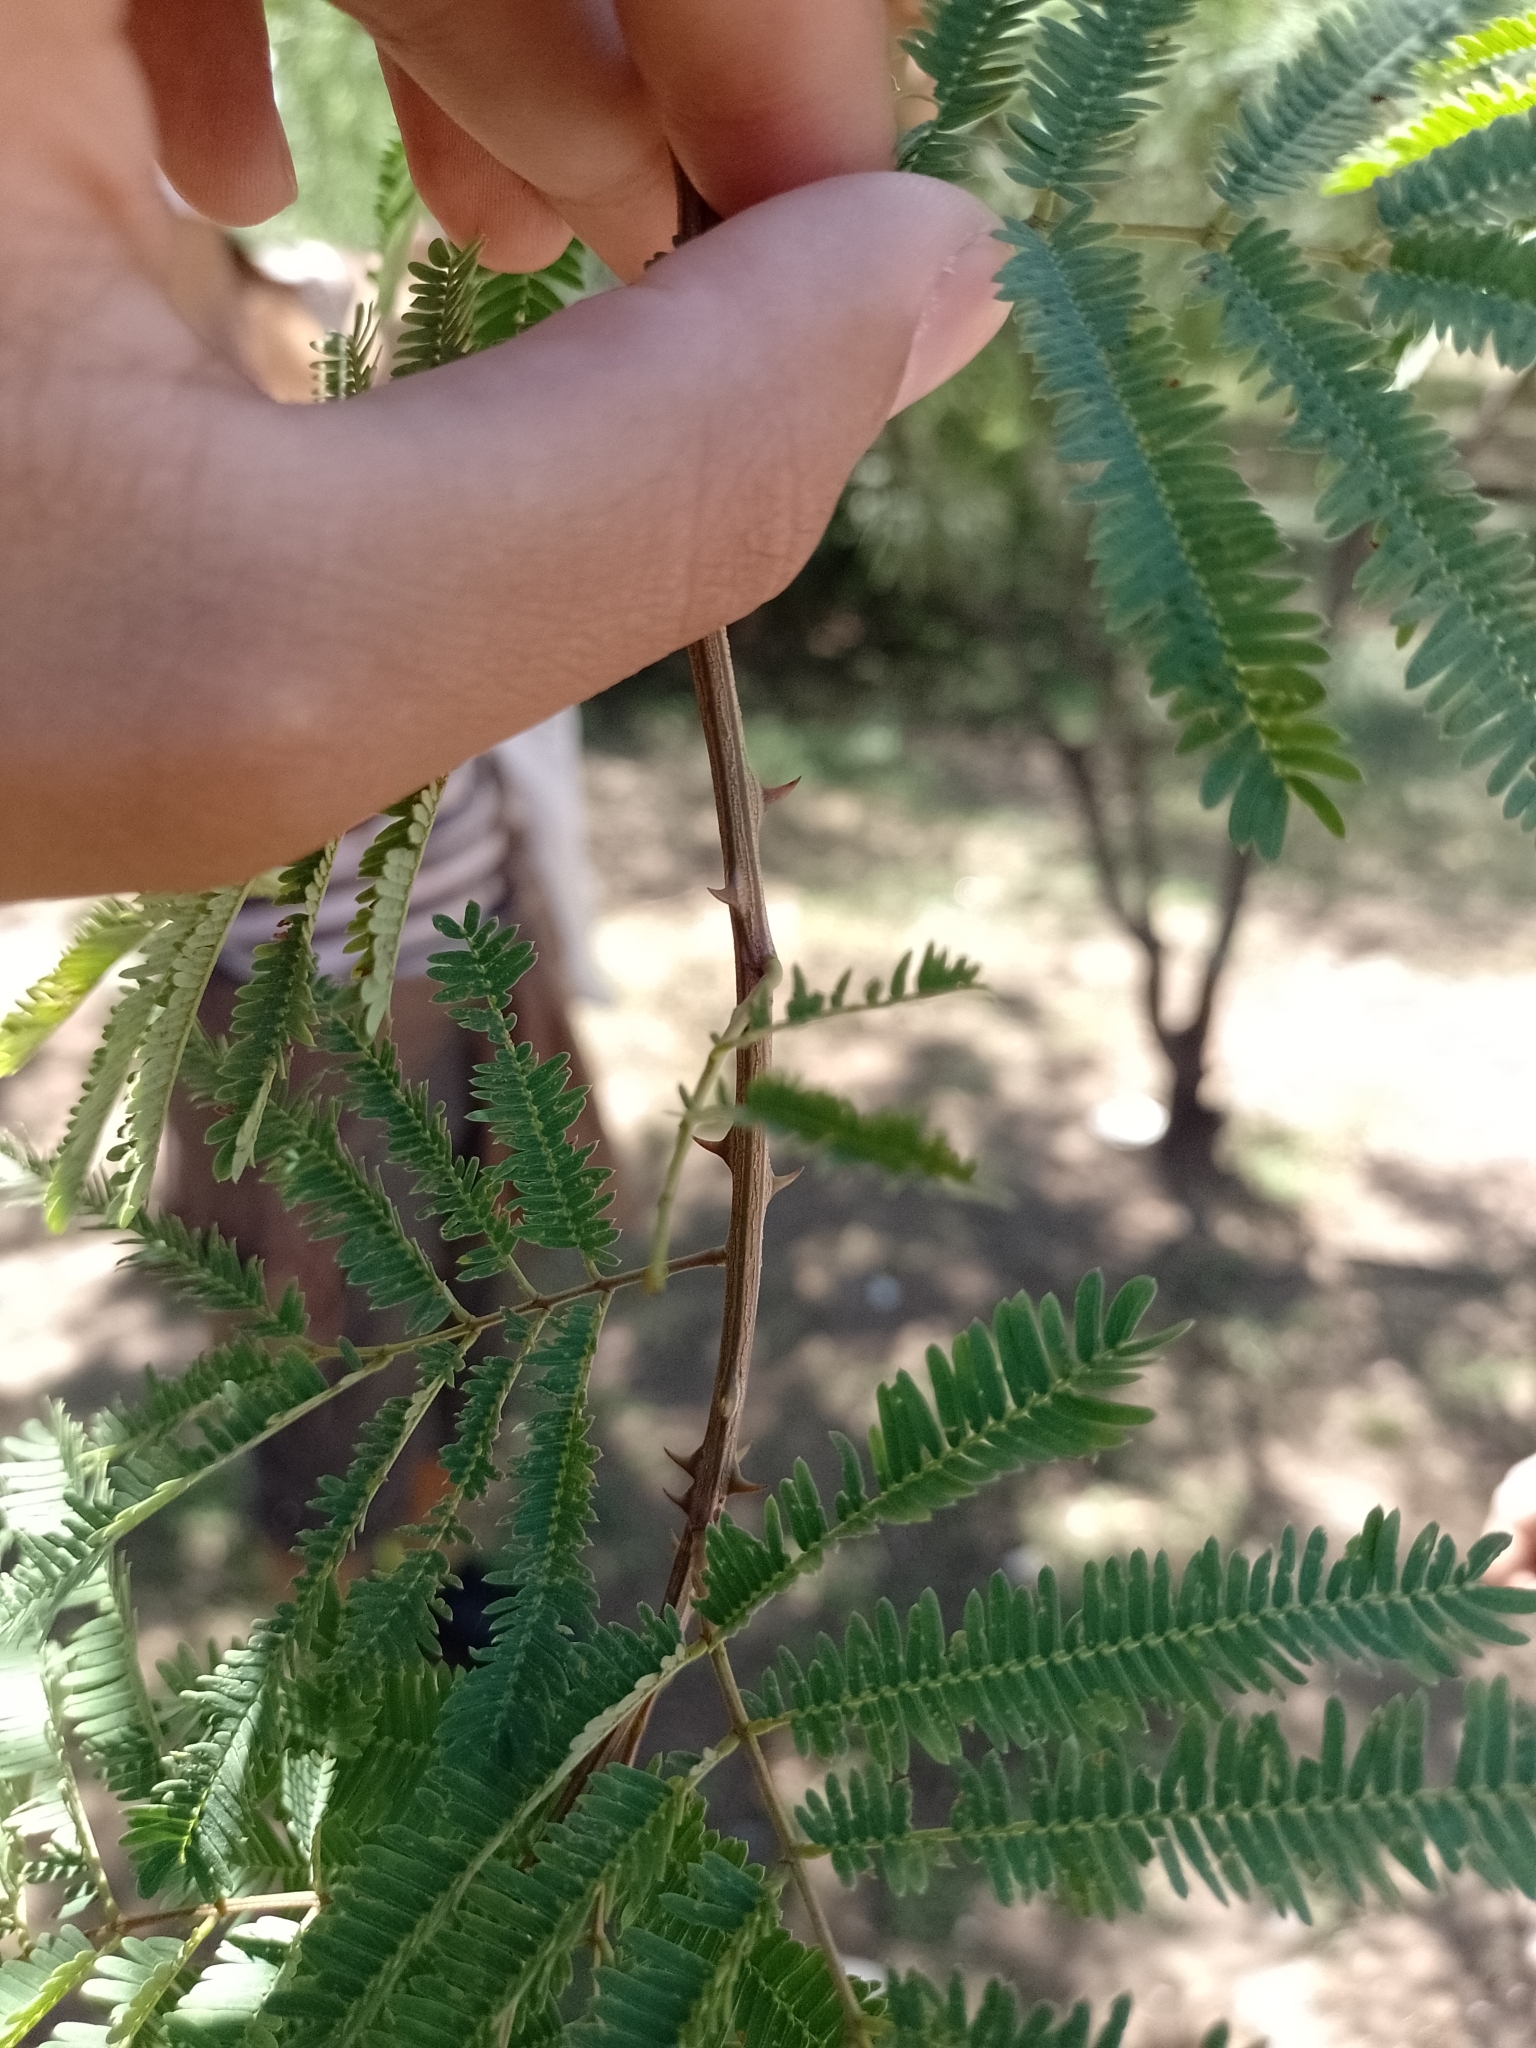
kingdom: Plantae
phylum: Tracheophyta
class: Magnoliopsida
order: Fabales
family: Fabaceae
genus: Senegalia
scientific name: Senegalia praecox
